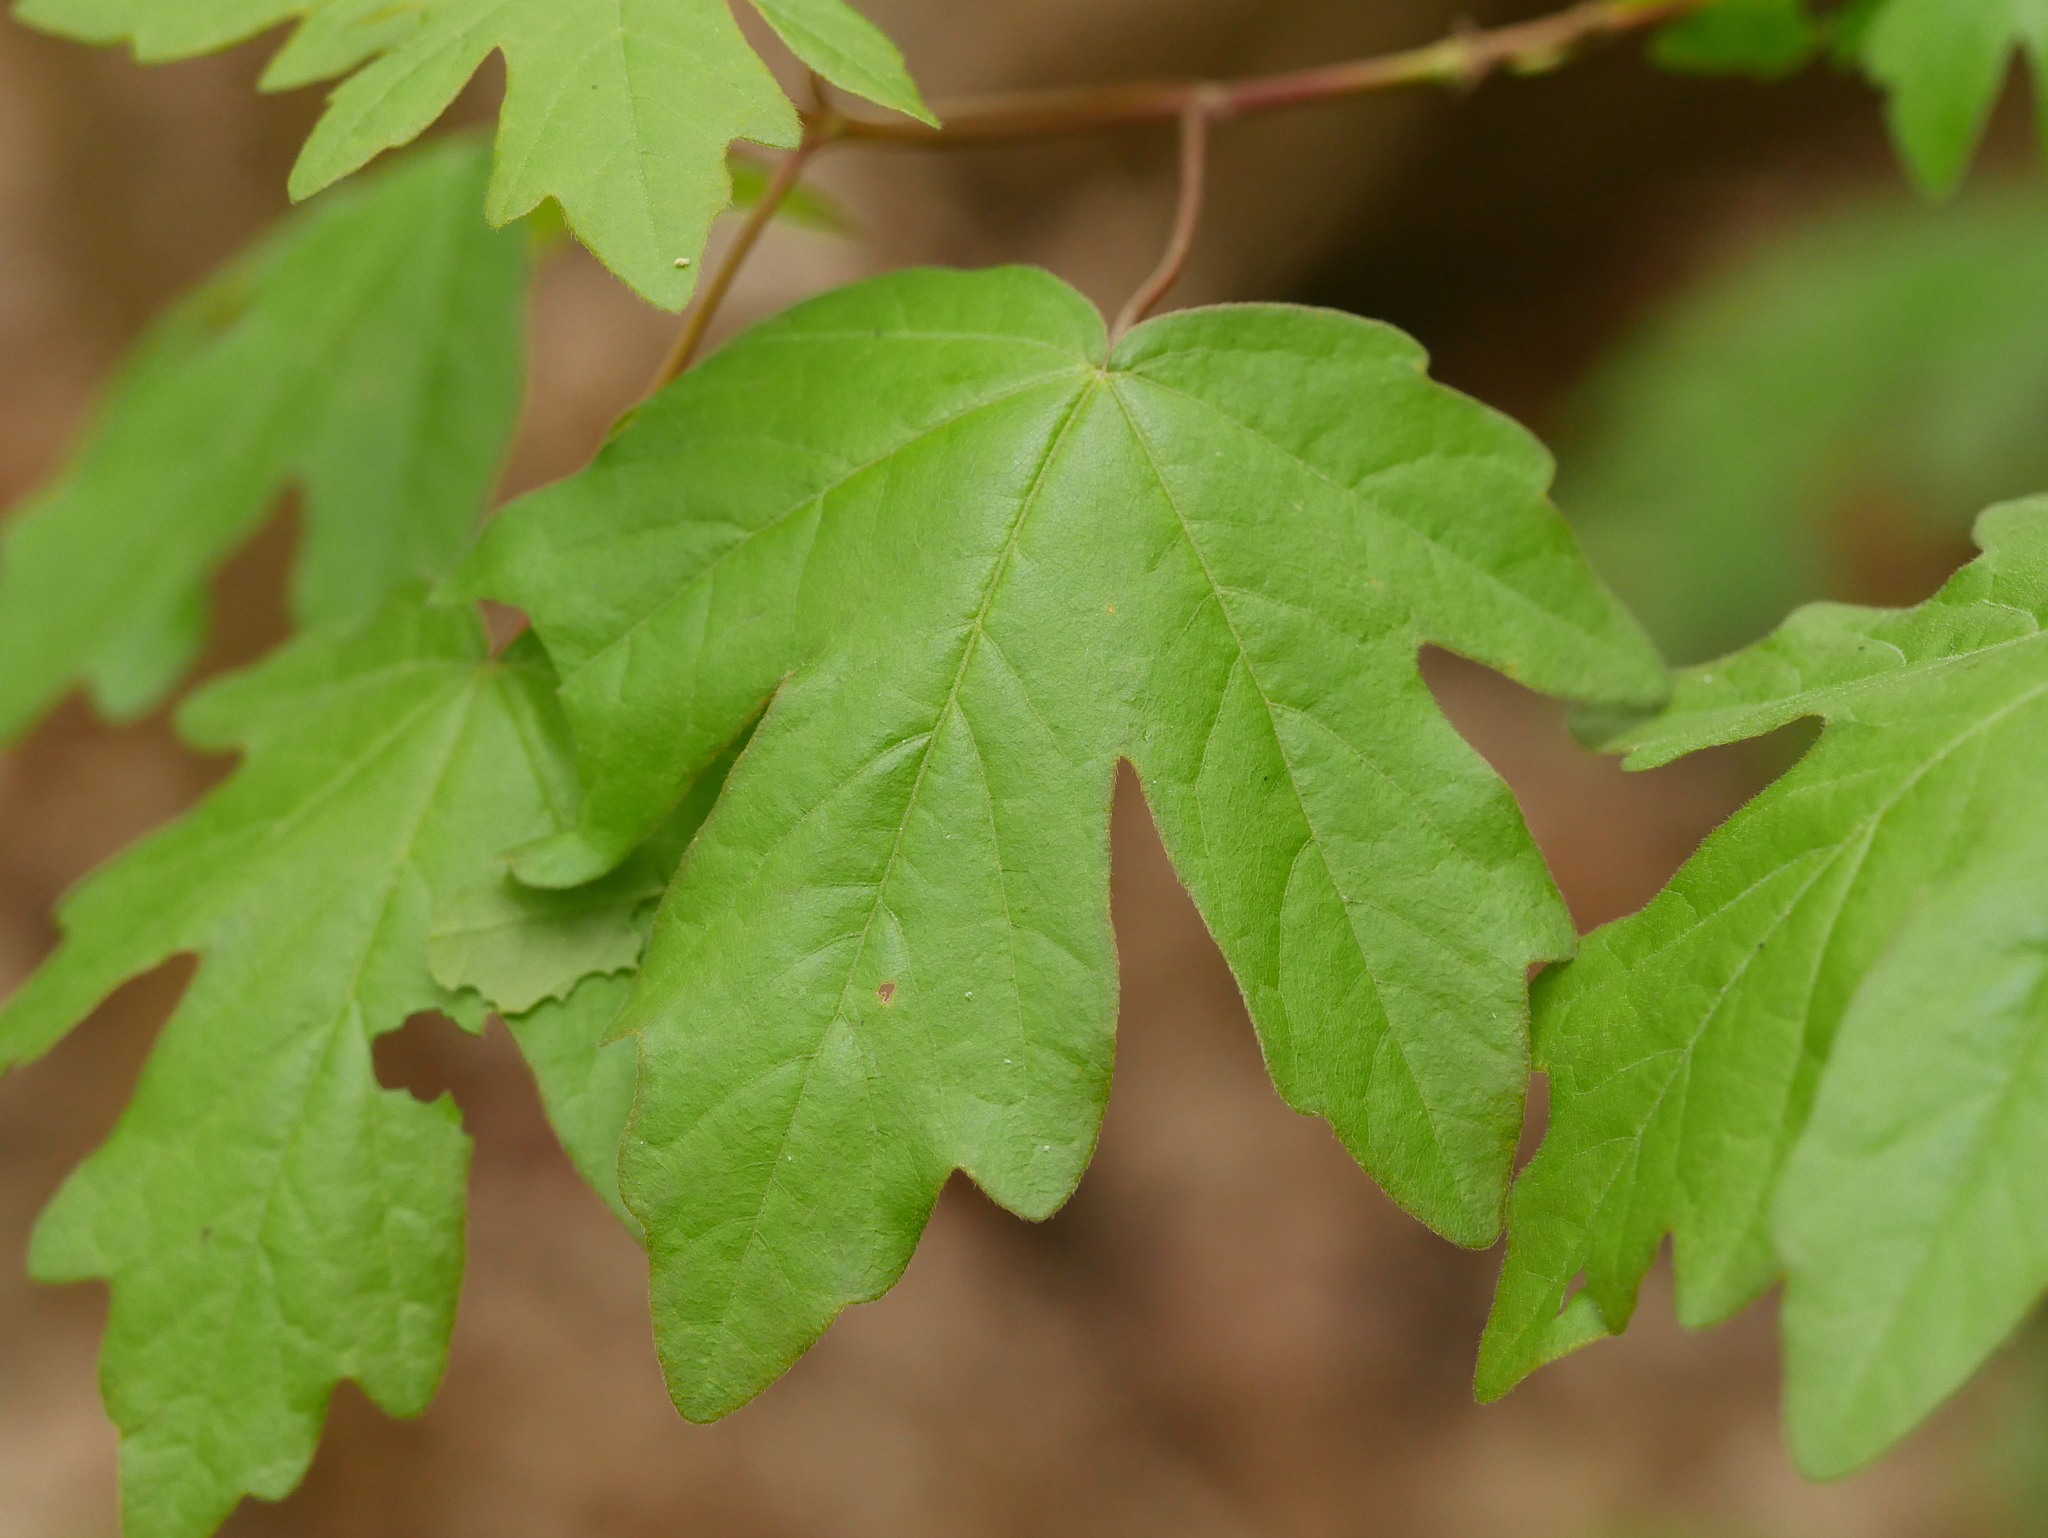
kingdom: Plantae
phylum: Tracheophyta
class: Magnoliopsida
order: Sapindales
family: Sapindaceae
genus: Acer
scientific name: Acer campestre
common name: Field maple
